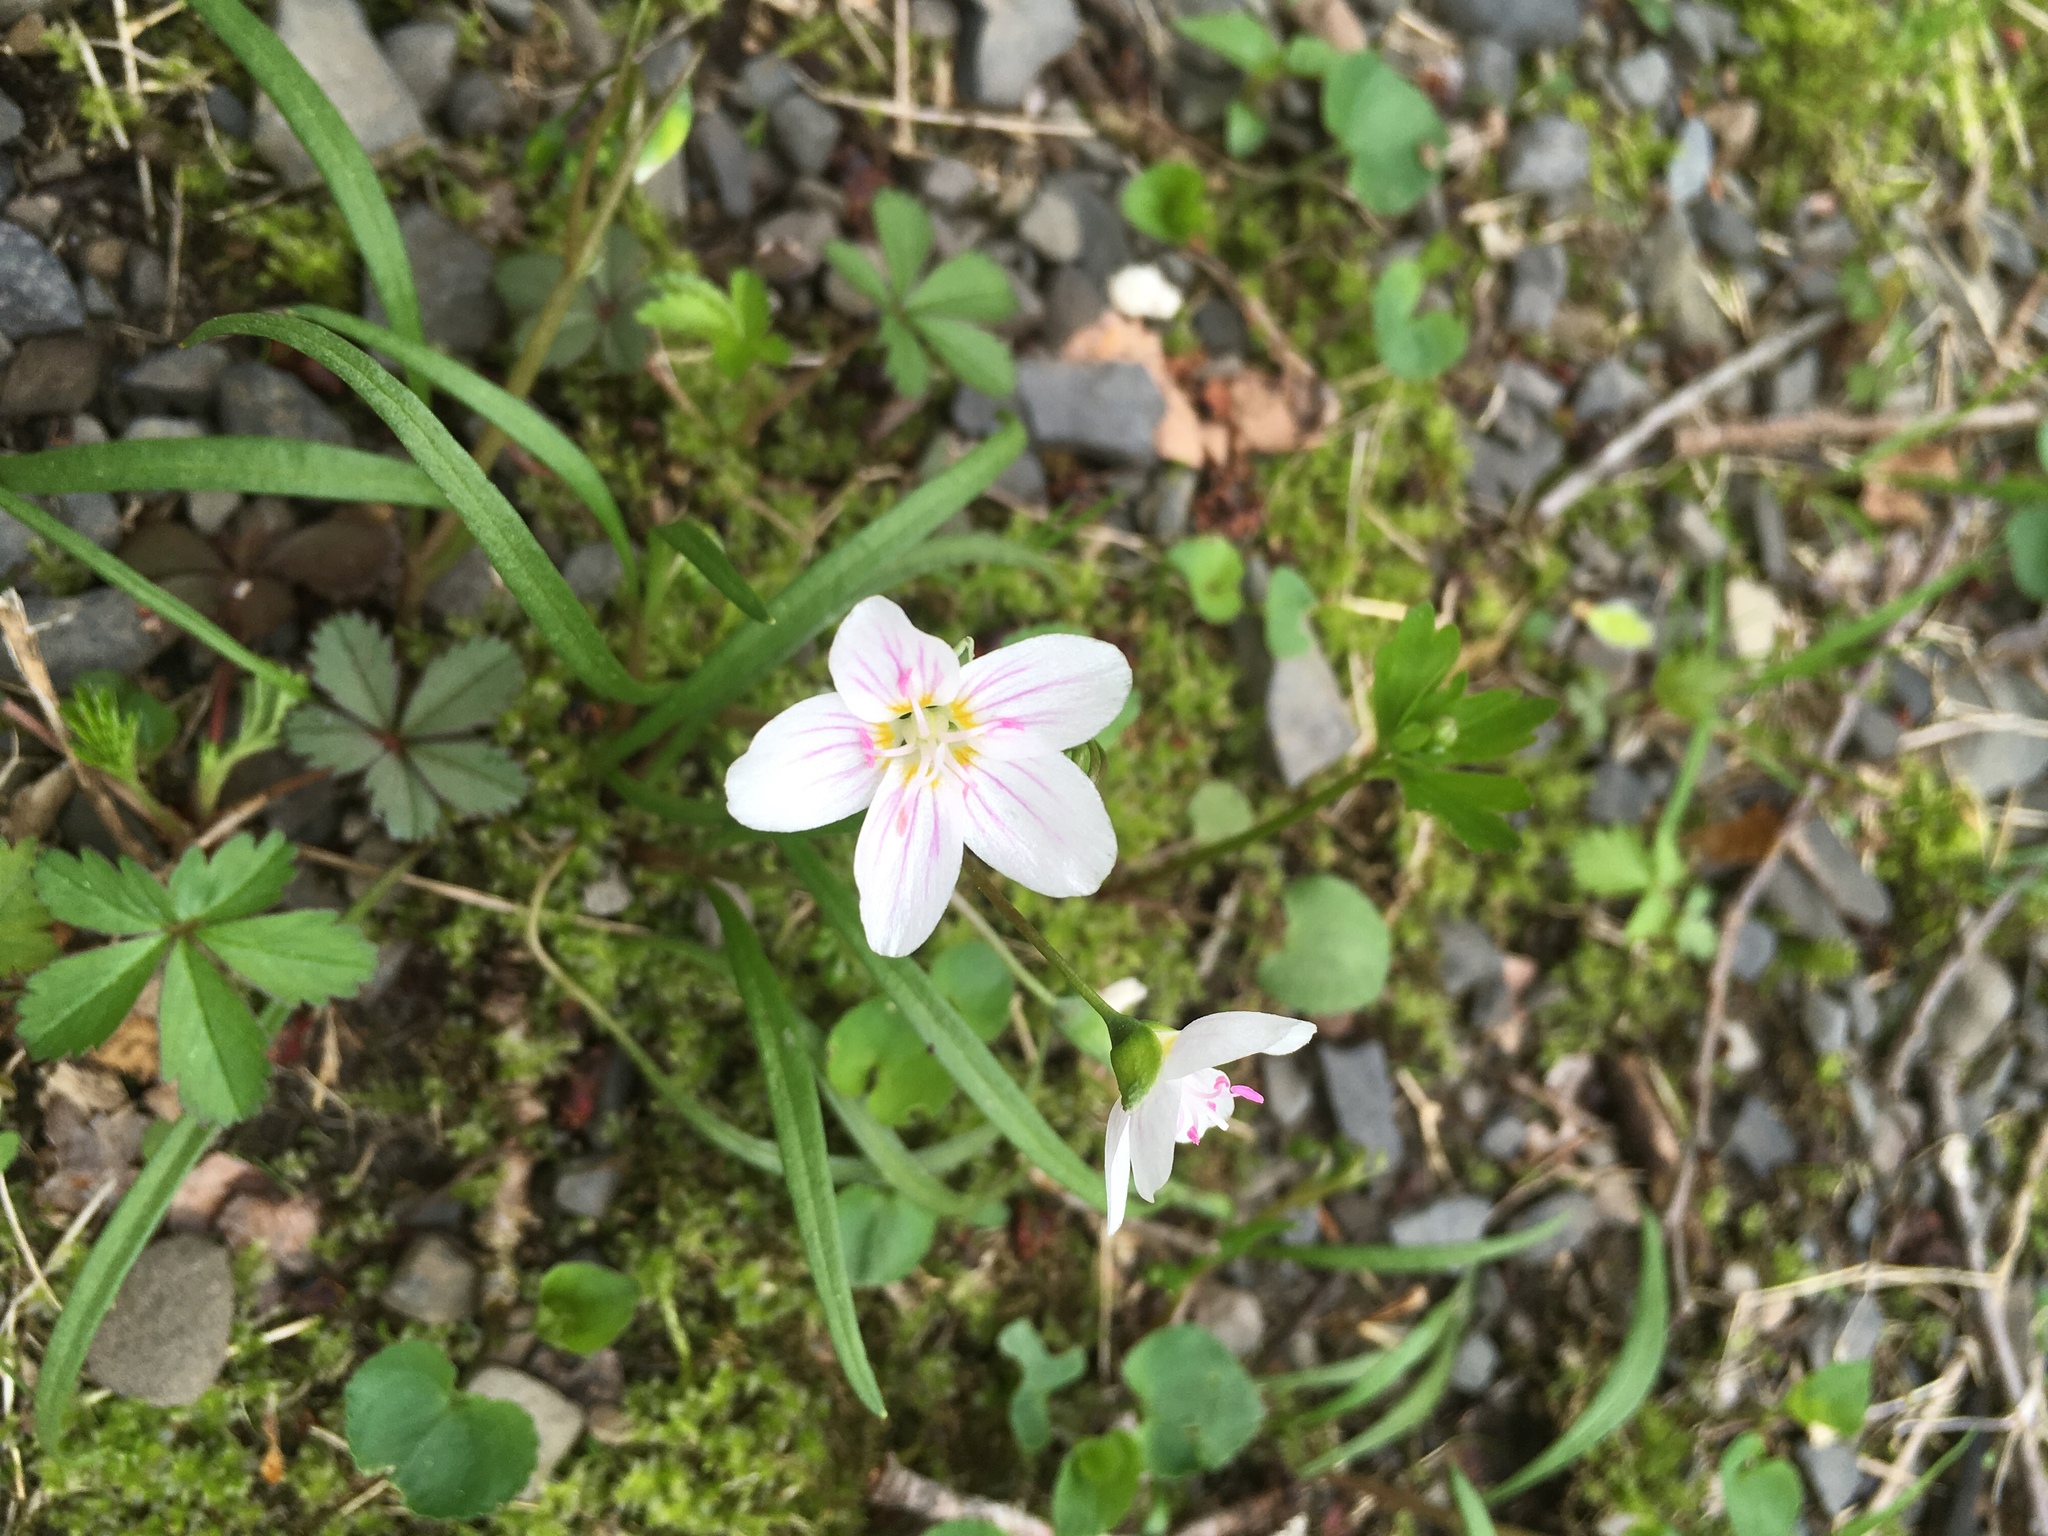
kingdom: Plantae
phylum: Tracheophyta
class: Magnoliopsida
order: Caryophyllales
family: Montiaceae
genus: Claytonia
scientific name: Claytonia virginica
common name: Virginia springbeauty
